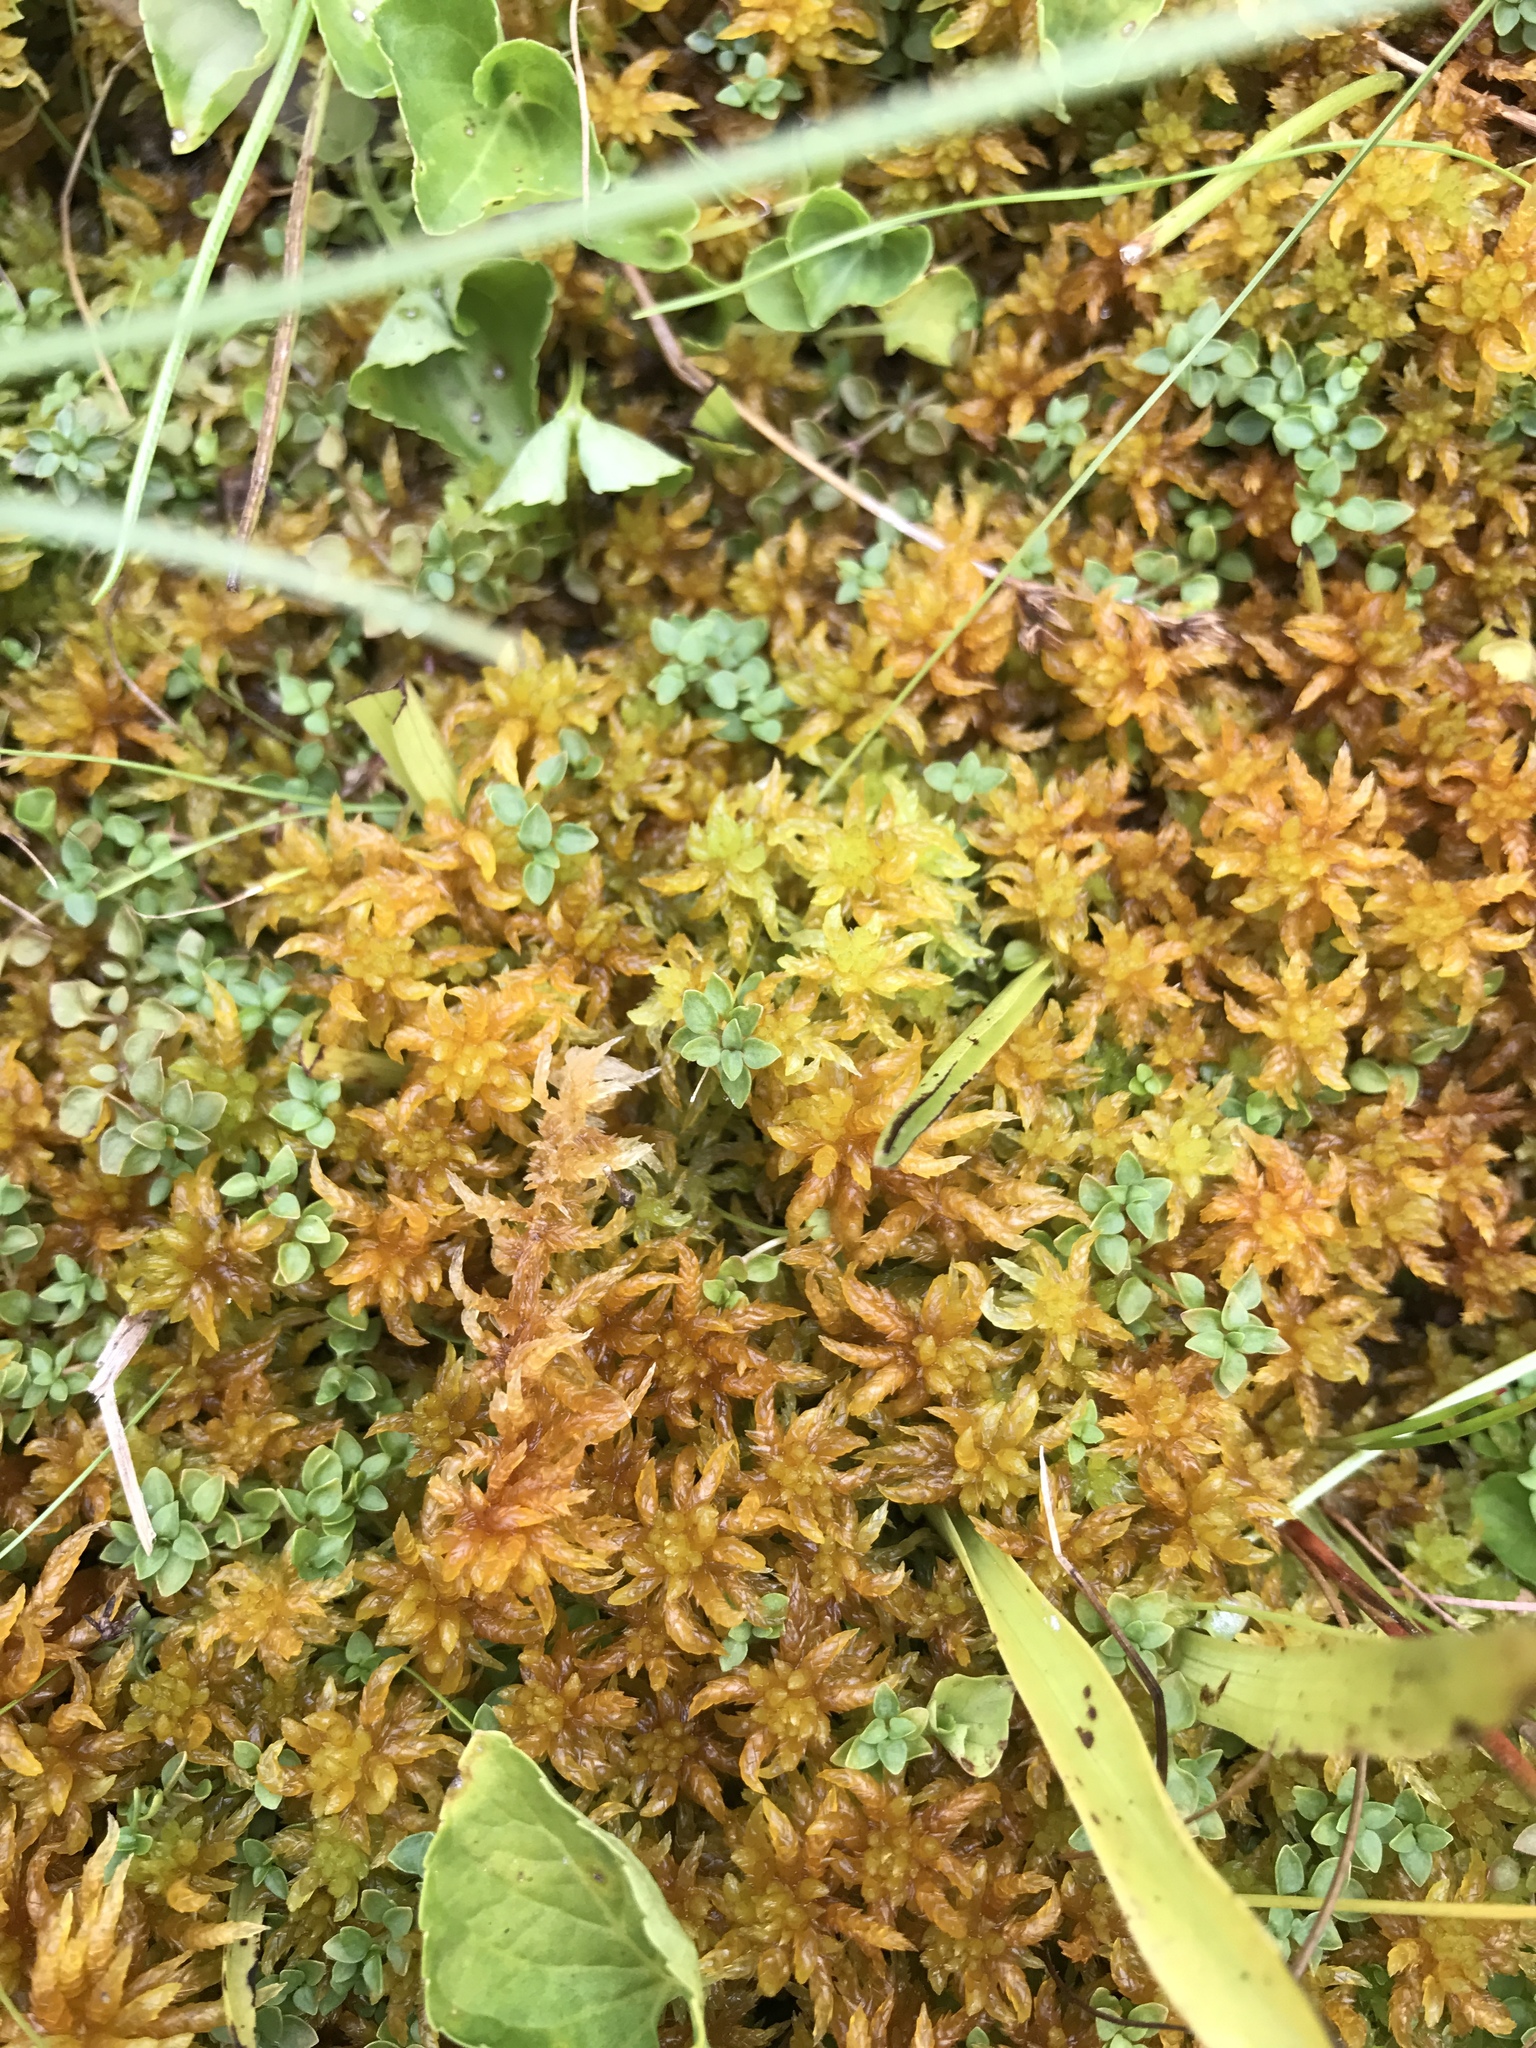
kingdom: Plantae
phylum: Bryophyta
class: Sphagnopsida
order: Sphagnales
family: Sphagnaceae
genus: Sphagnum
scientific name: Sphagnum subsecundum
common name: Orange peat moss
